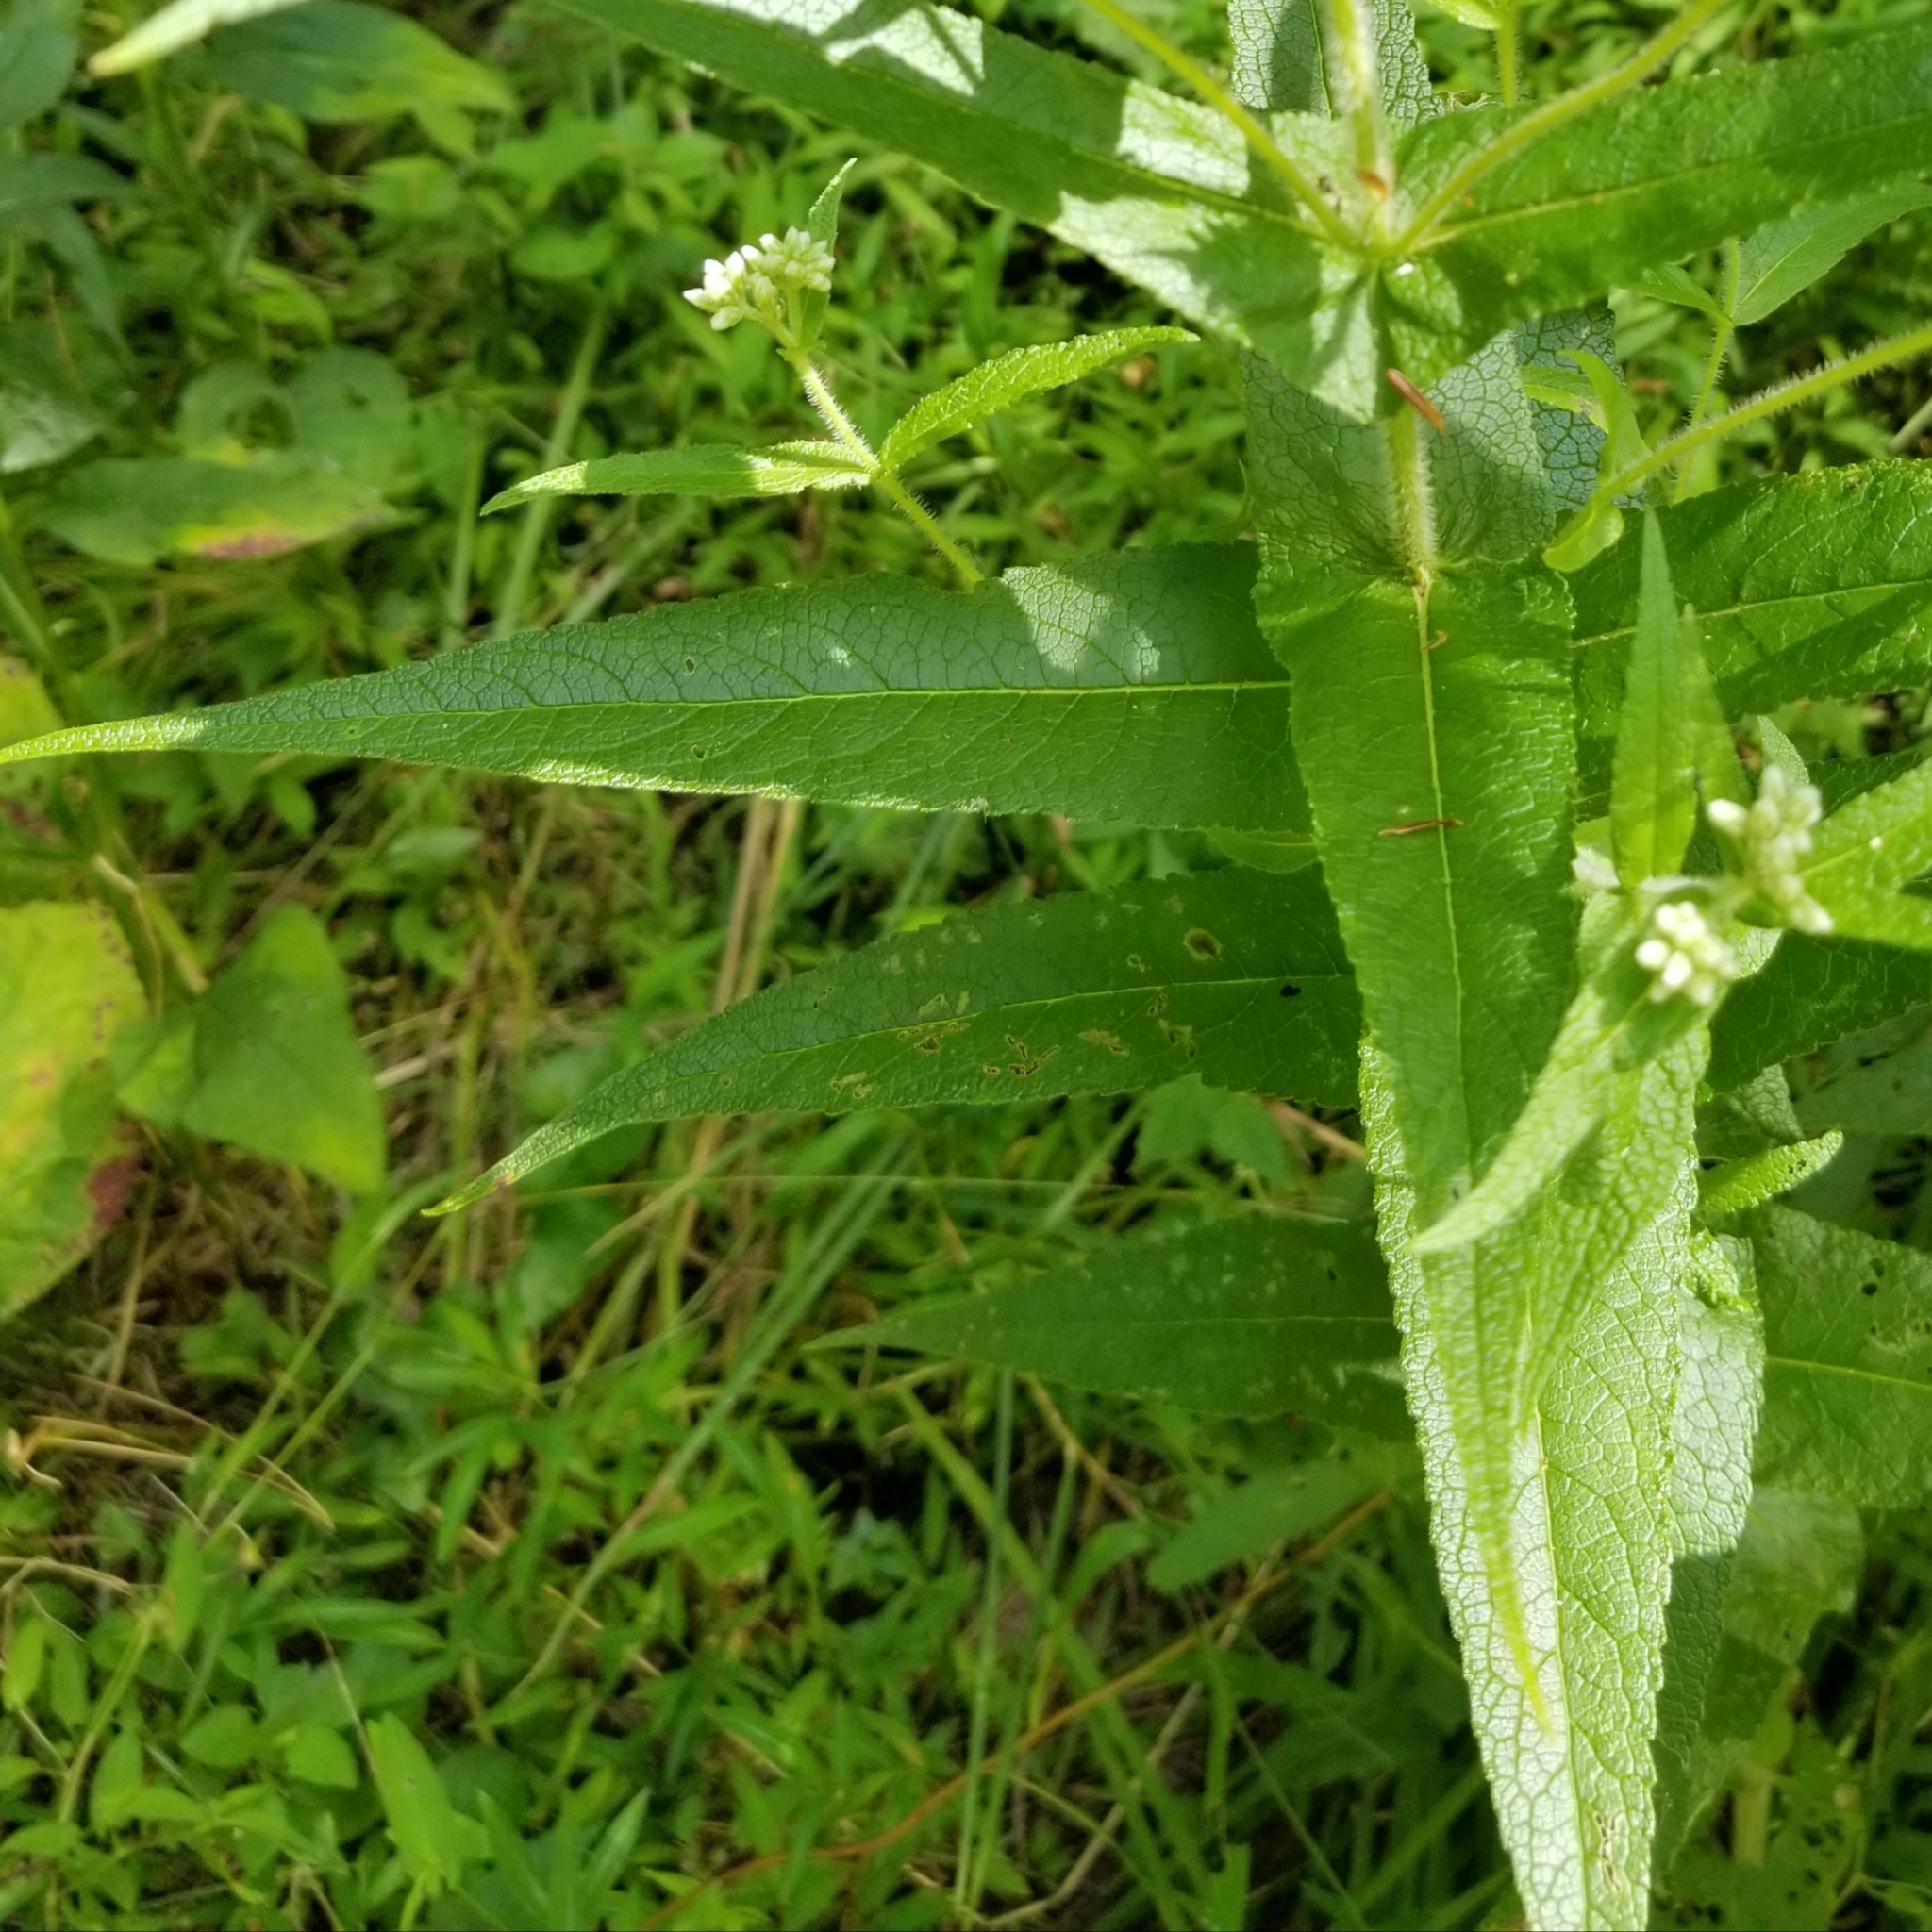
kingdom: Plantae
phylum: Tracheophyta
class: Magnoliopsida
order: Asterales
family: Asteraceae
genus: Eupatorium
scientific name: Eupatorium perfoliatum
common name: Boneset
